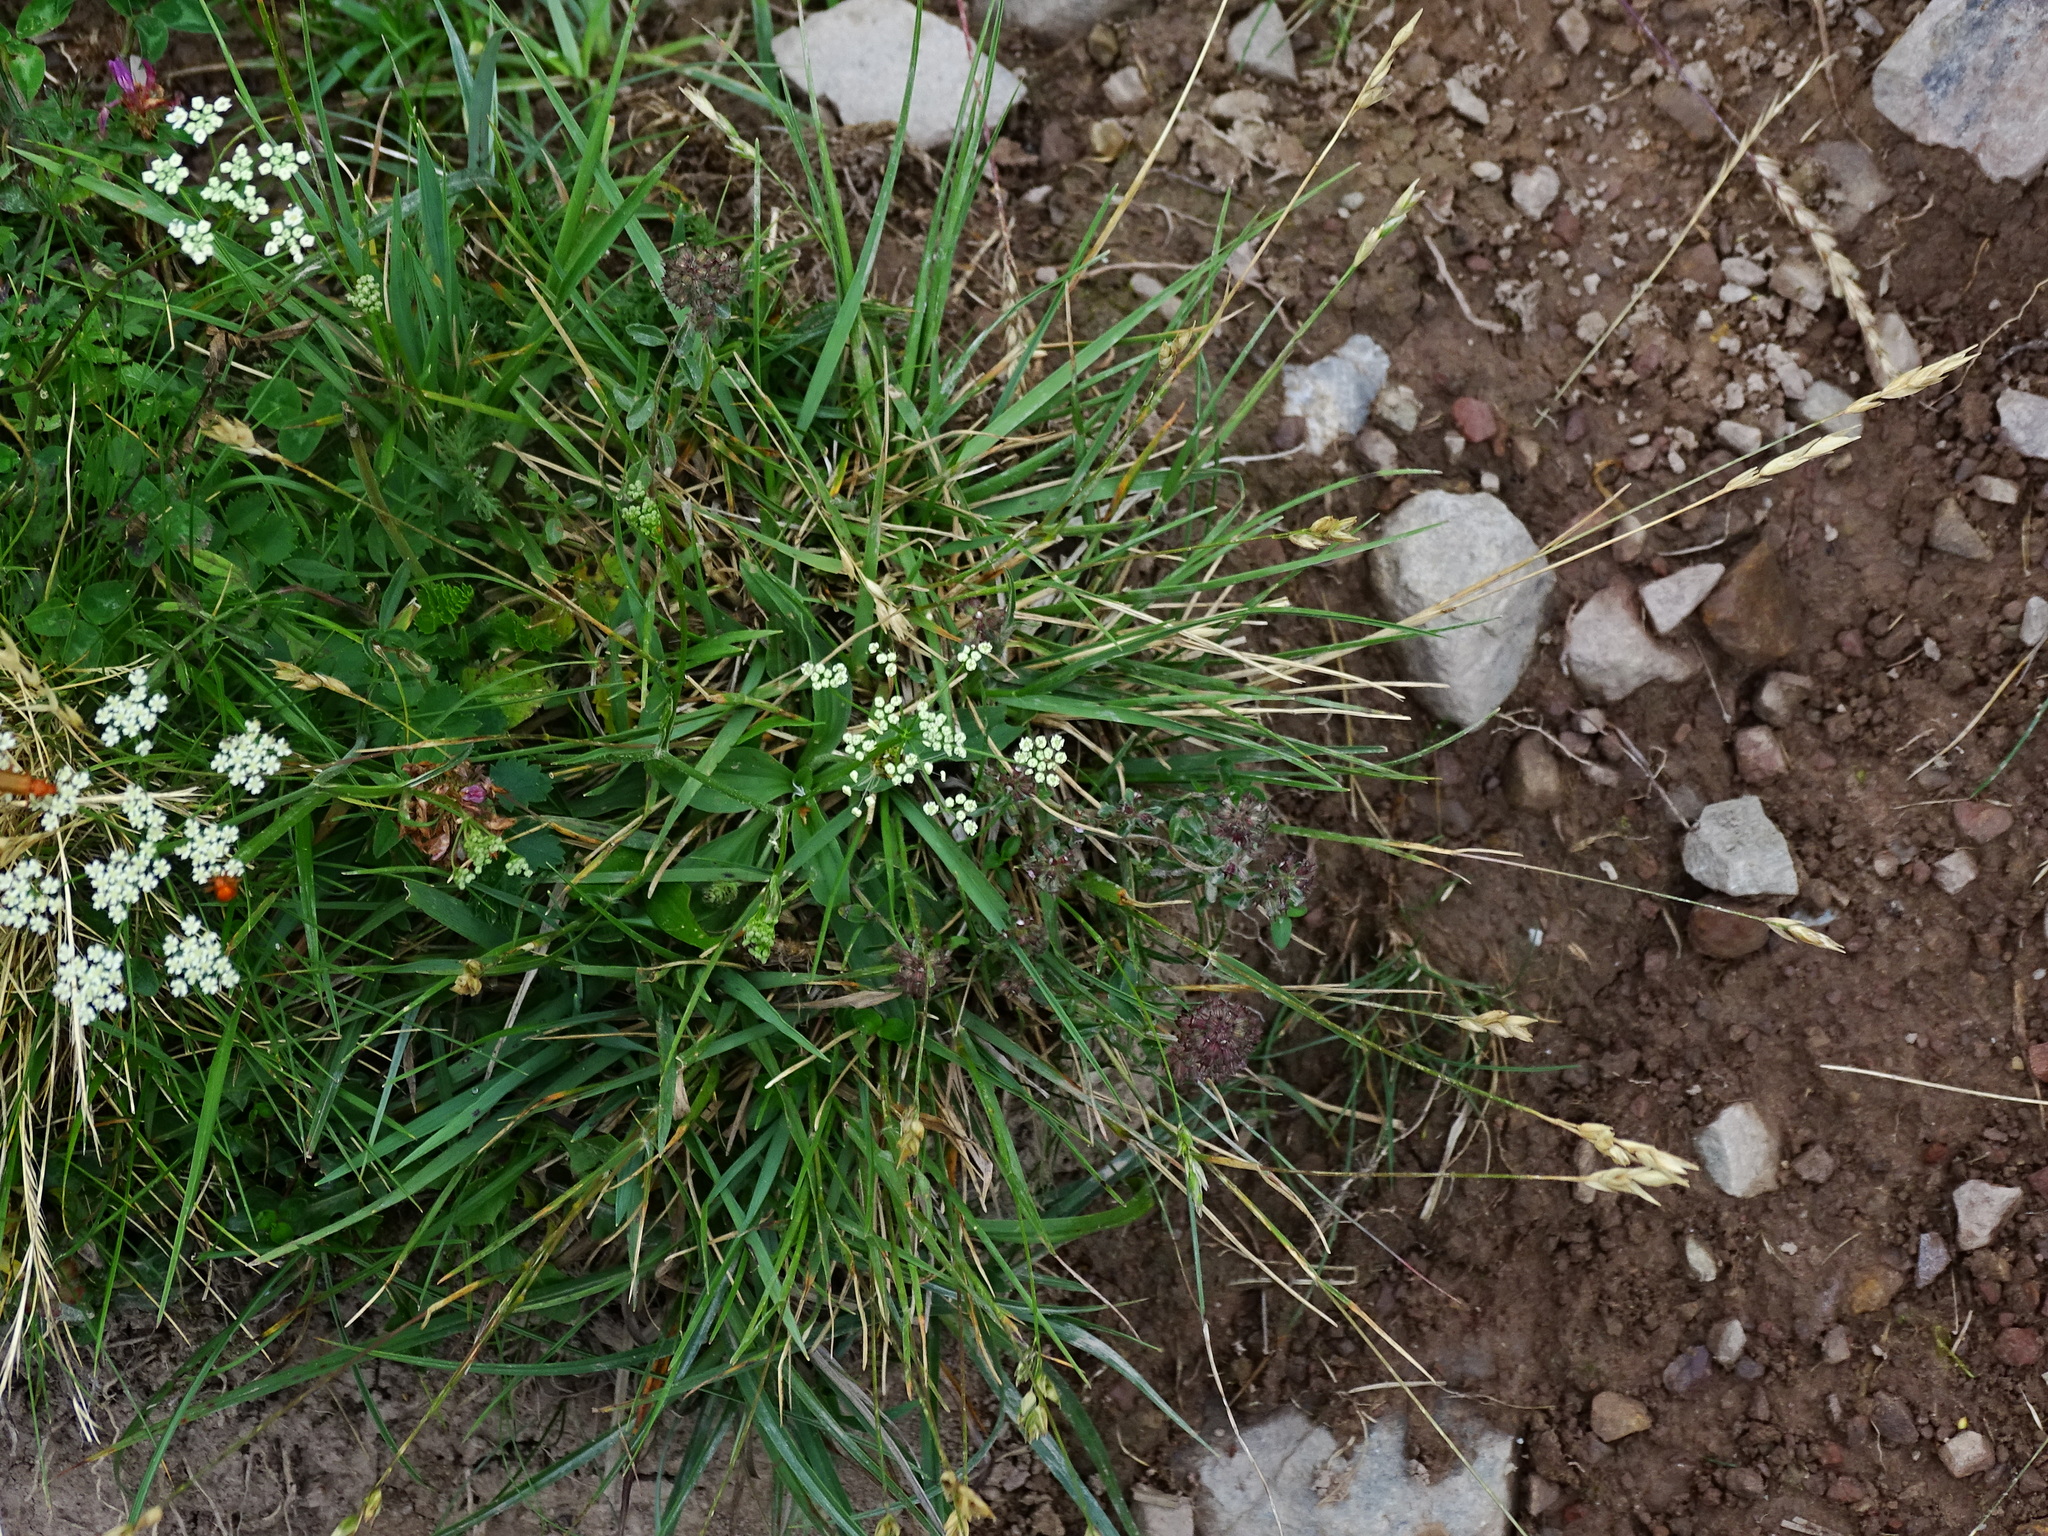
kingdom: Plantae
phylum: Tracheophyta
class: Liliopsida
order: Poales
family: Poaceae
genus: Danthonia
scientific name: Danthonia decumbens
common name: Common heathgrass
